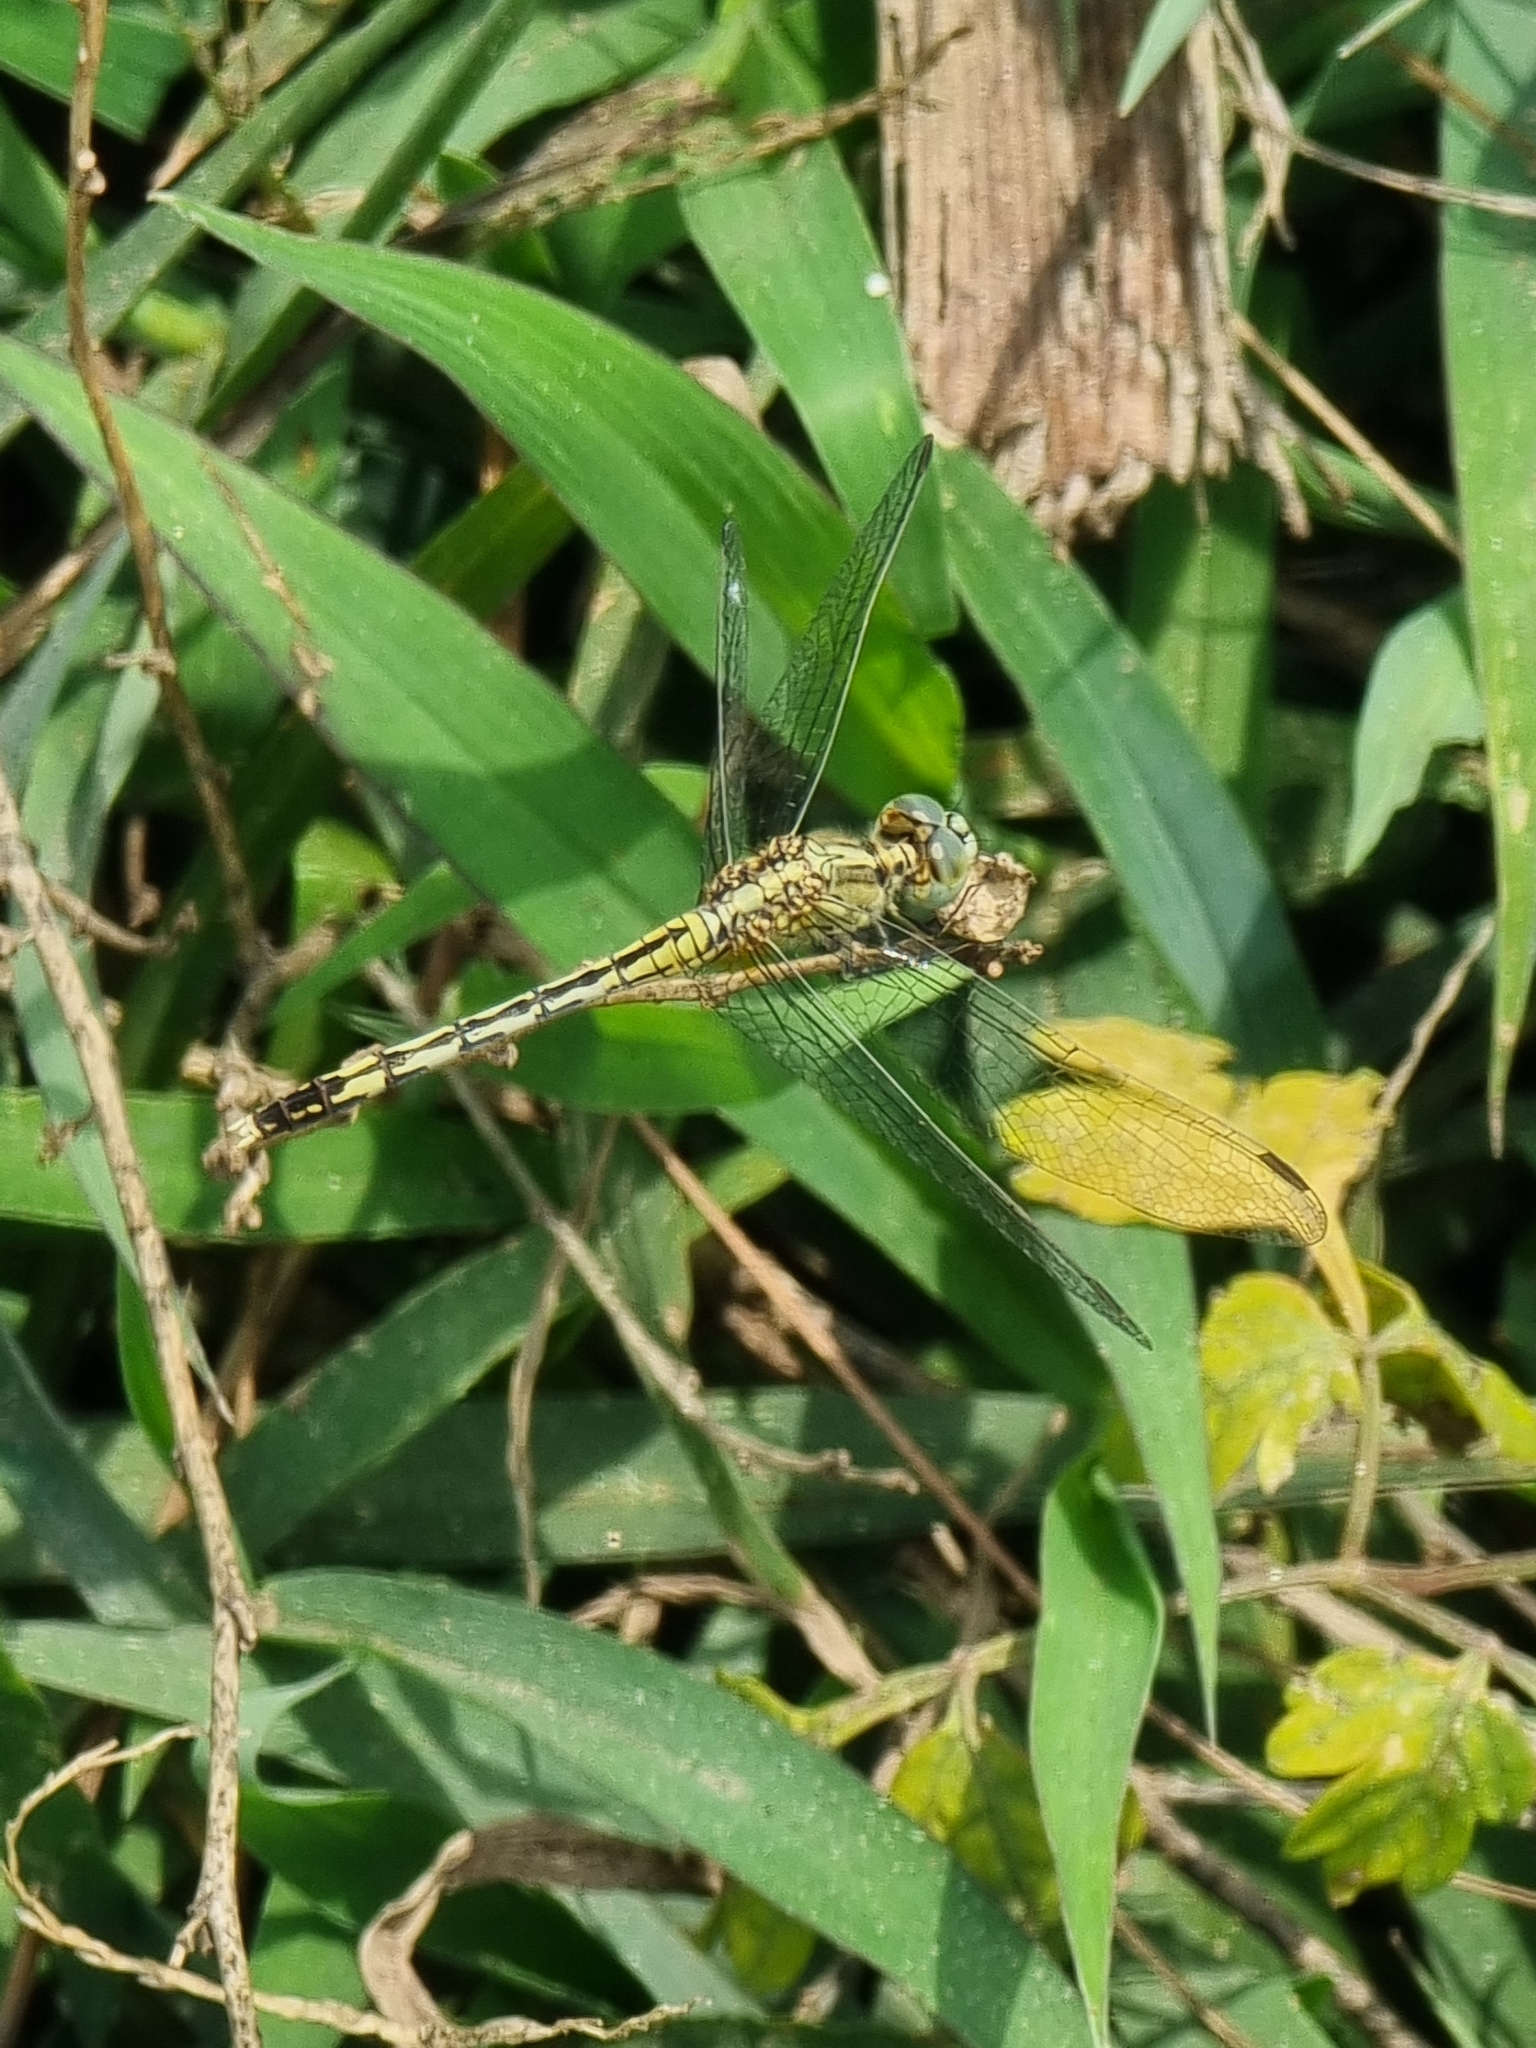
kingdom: Animalia
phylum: Arthropoda
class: Insecta
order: Odonata
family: Libellulidae
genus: Diplacodes
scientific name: Diplacodes trivialis
